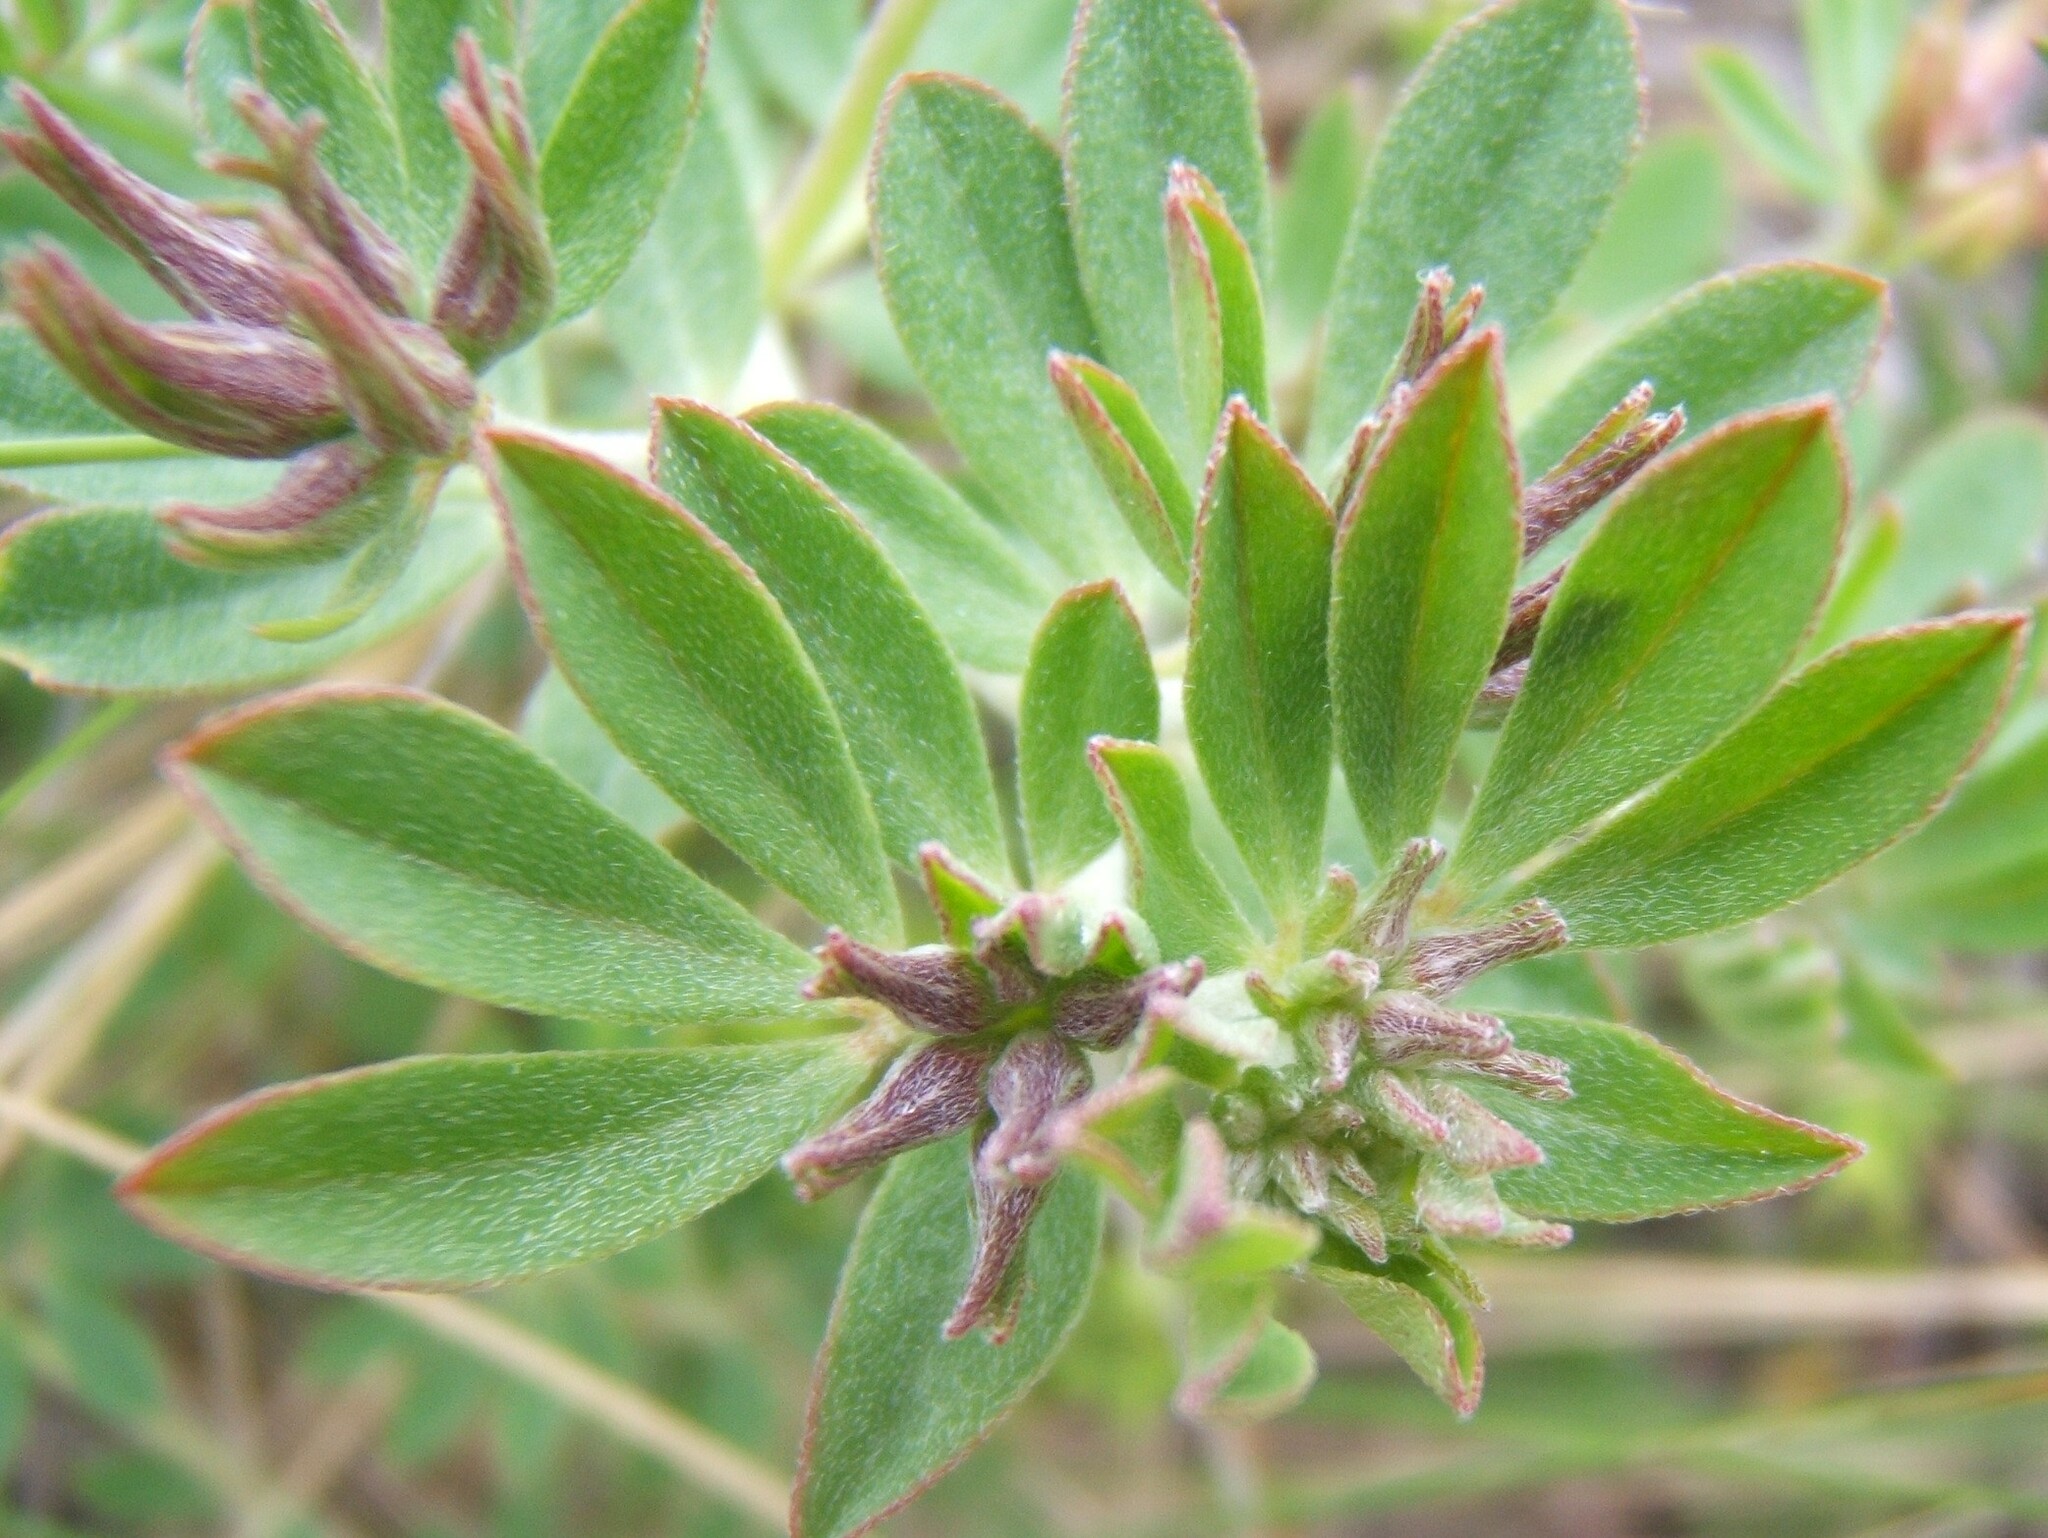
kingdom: Plantae
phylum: Tracheophyta
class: Magnoliopsida
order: Fabales
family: Fabaceae
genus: Lotus
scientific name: Lotus australis
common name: Australian trefoil
